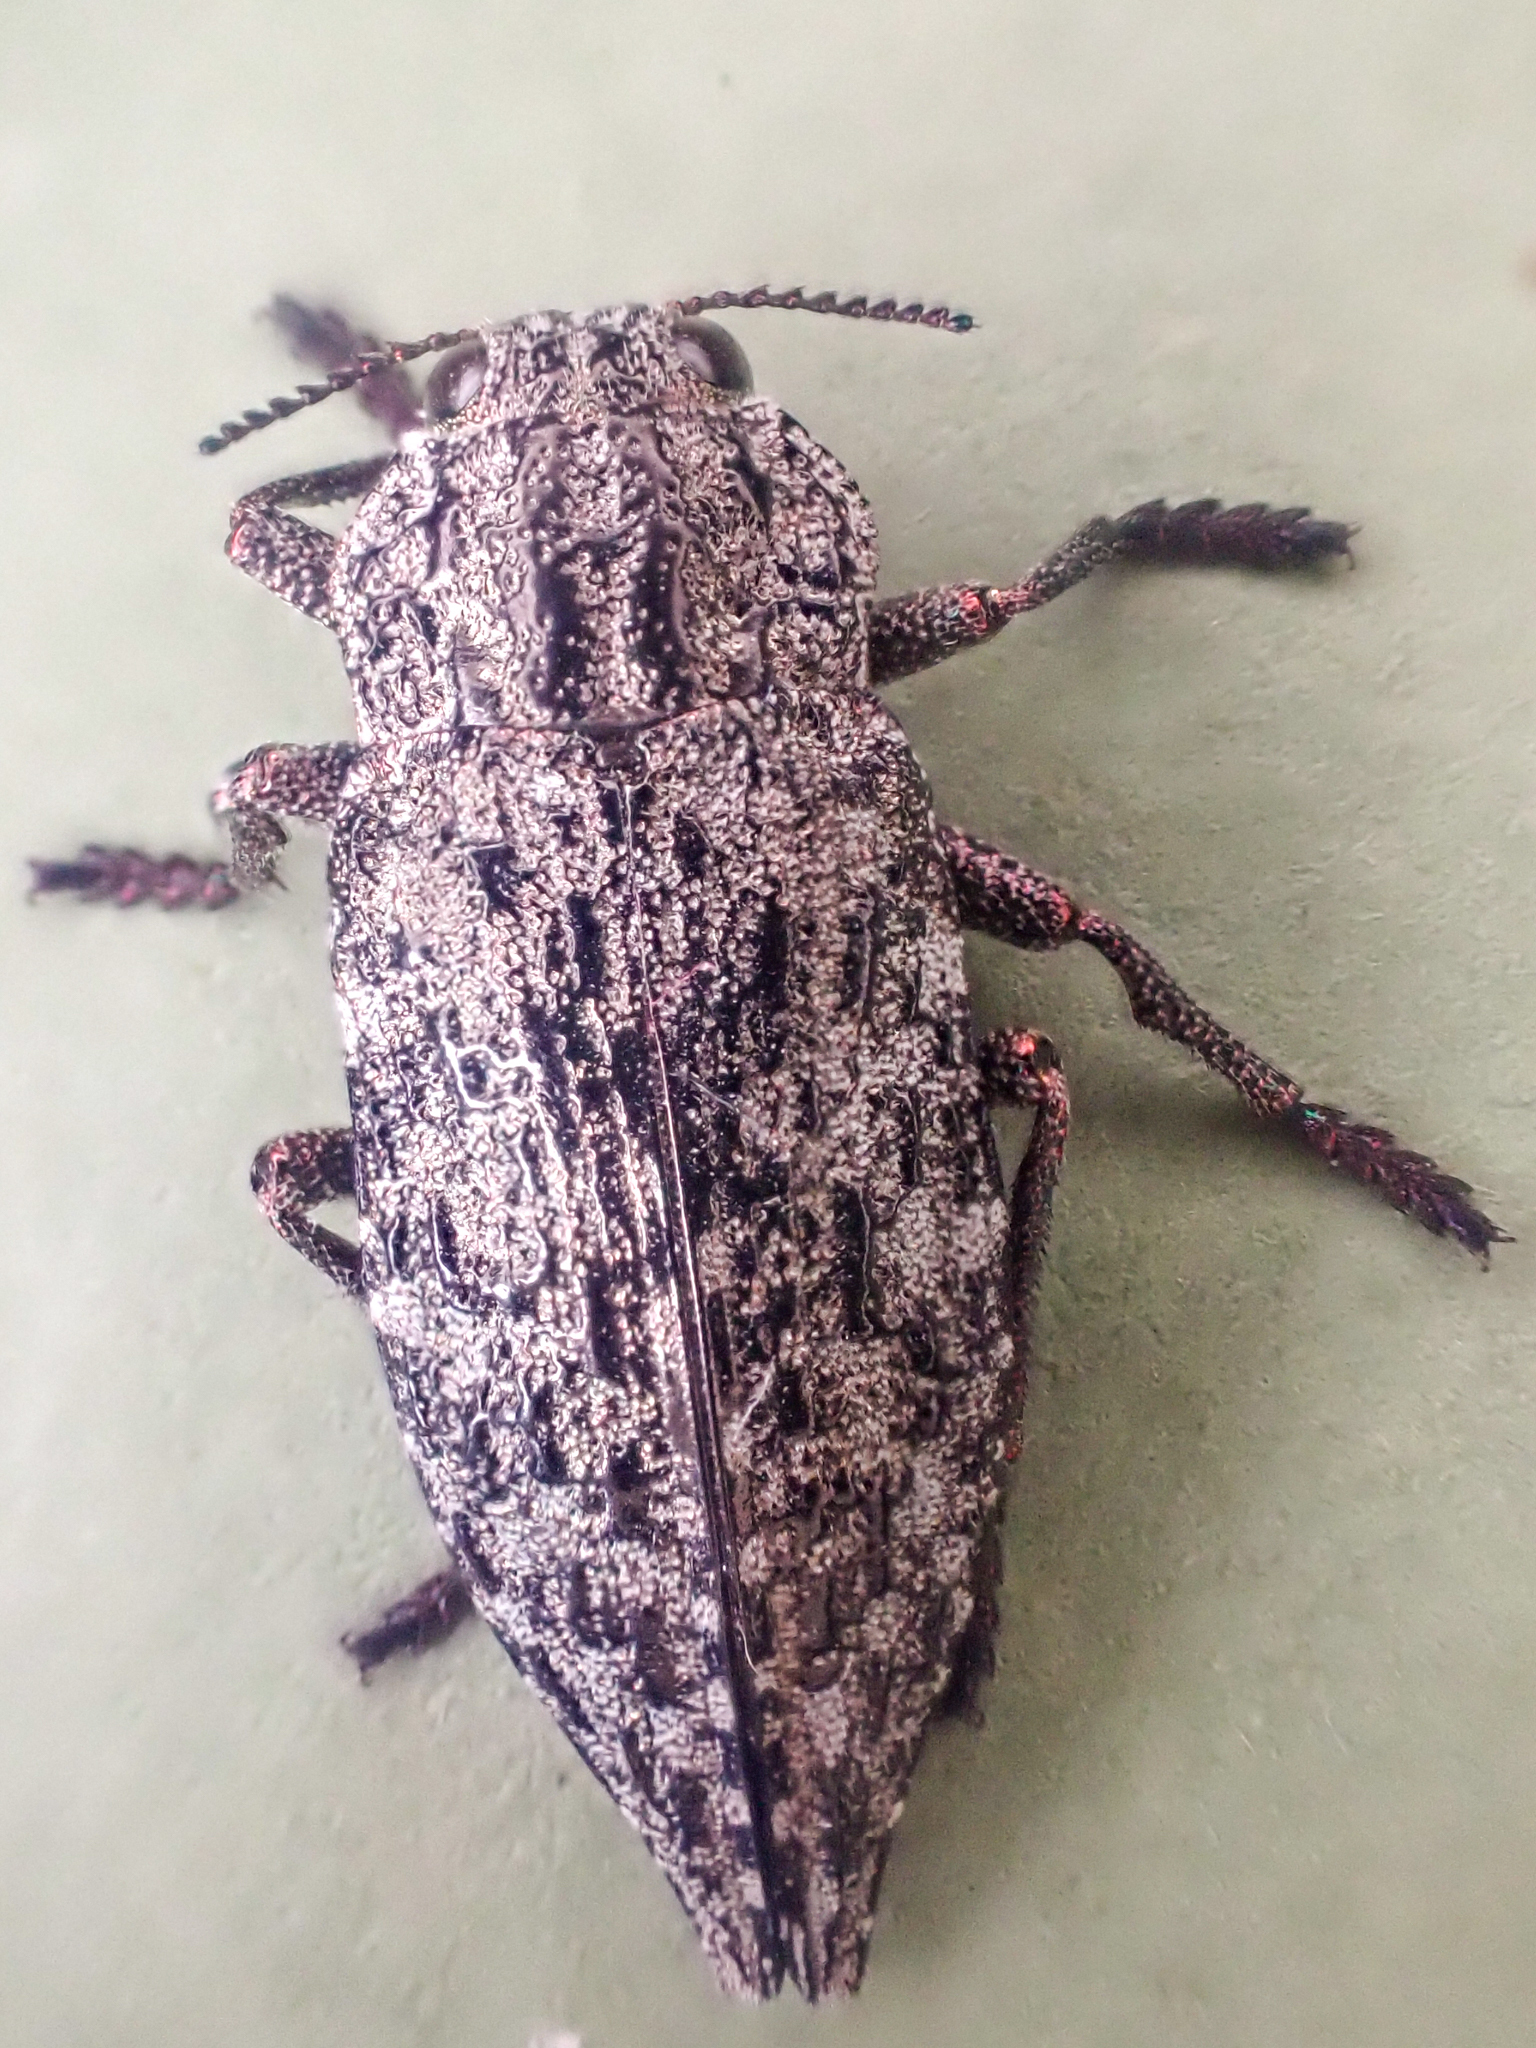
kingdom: Animalia
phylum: Arthropoda
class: Insecta
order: Coleoptera
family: Buprestidae
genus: Dicerca
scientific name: Dicerca tenebrosa
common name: Dark jewel beetle
